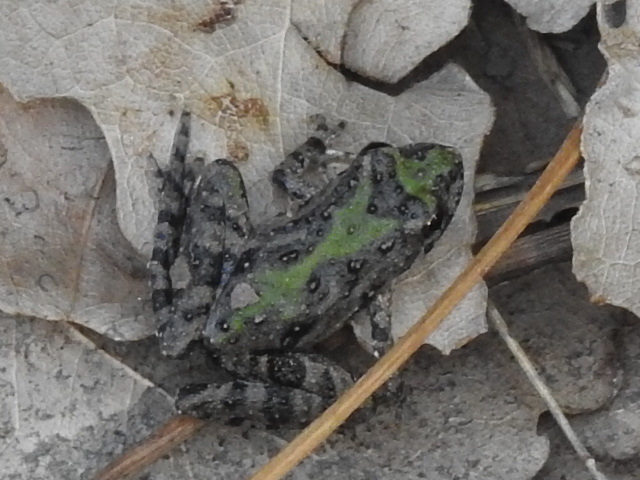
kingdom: Animalia
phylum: Chordata
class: Amphibia
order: Anura
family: Hylidae
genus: Acris
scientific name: Acris blanchardi
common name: Blanchard's cricket frog
